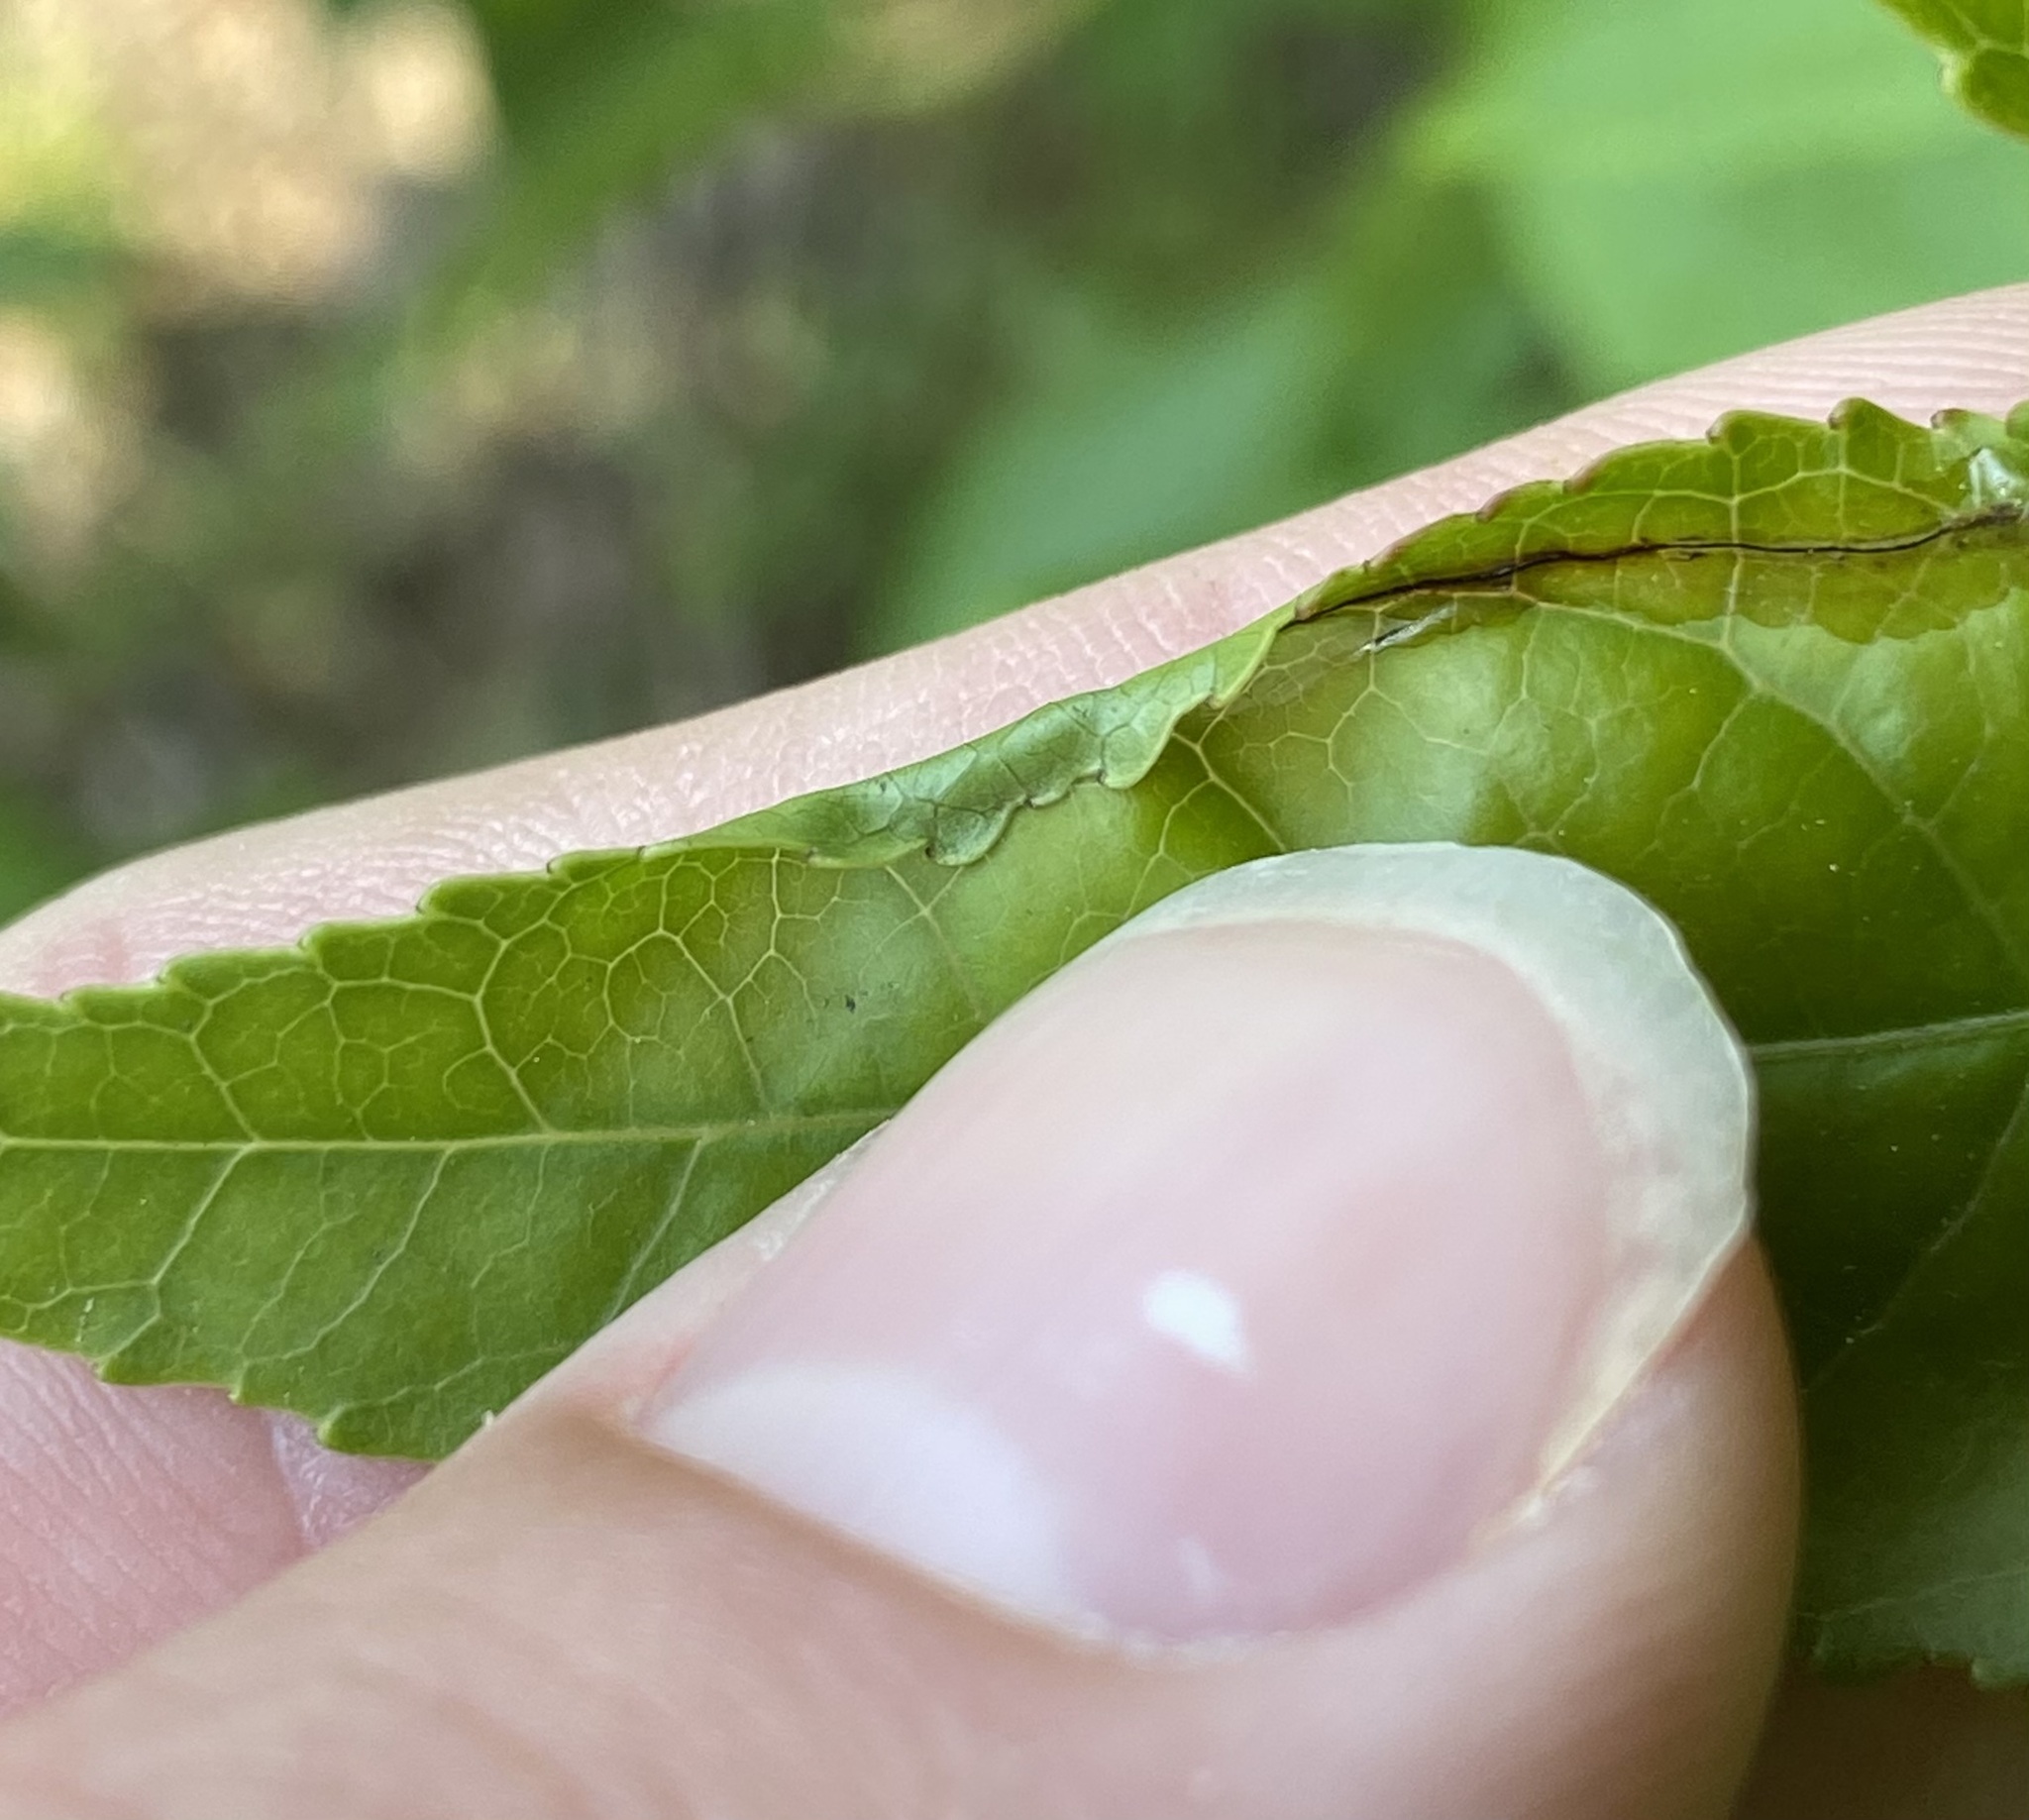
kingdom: Animalia
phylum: Arthropoda
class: Insecta
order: Lepidoptera
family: Gracillariidae
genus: Phyllocnistis
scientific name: Phyllocnistis liquidambarisella
